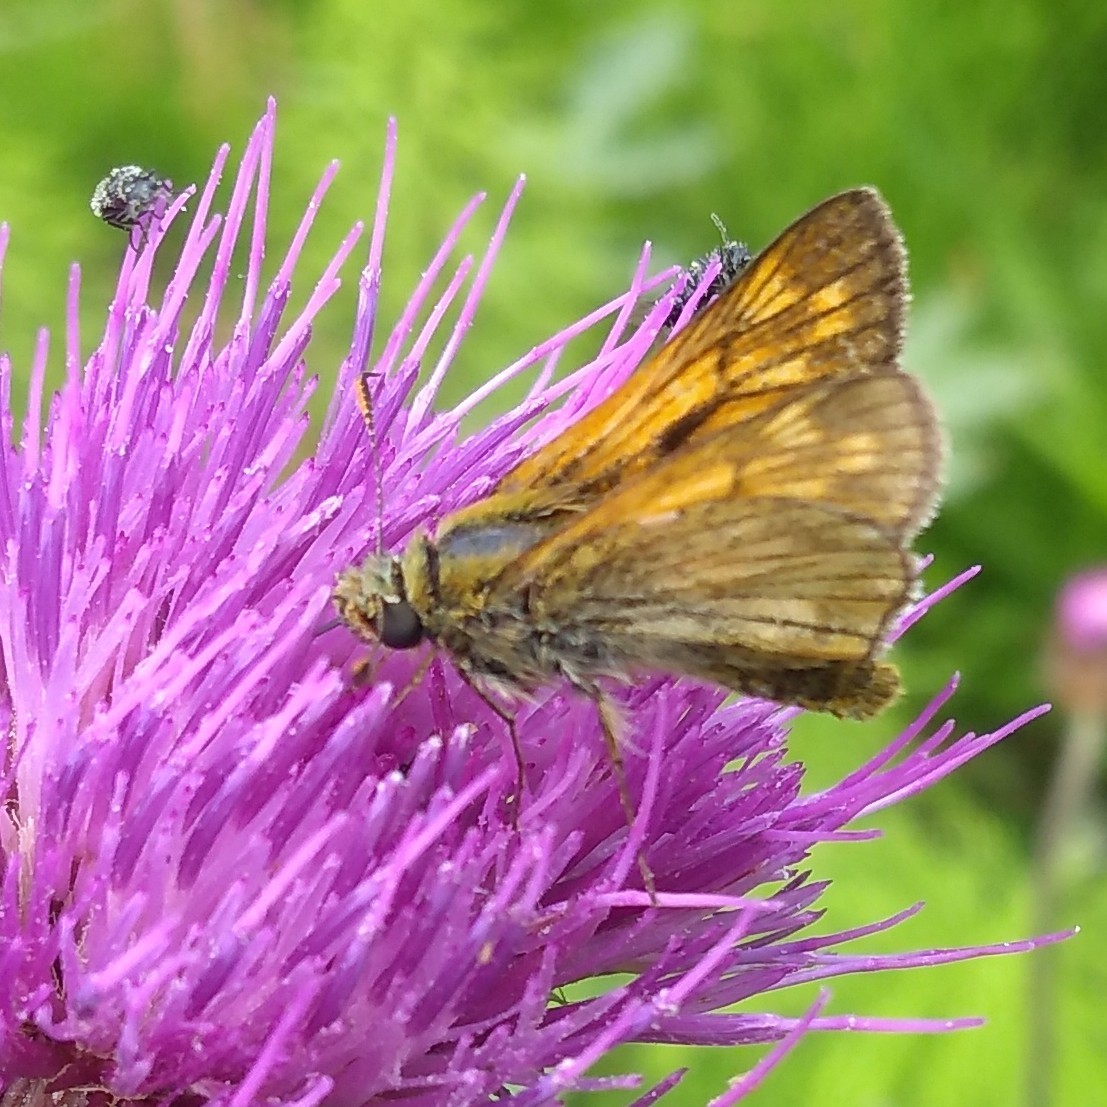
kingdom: Animalia
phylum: Arthropoda
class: Insecta
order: Lepidoptera
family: Hesperiidae
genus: Ochlodes
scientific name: Ochlodes venata
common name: Large skipper
